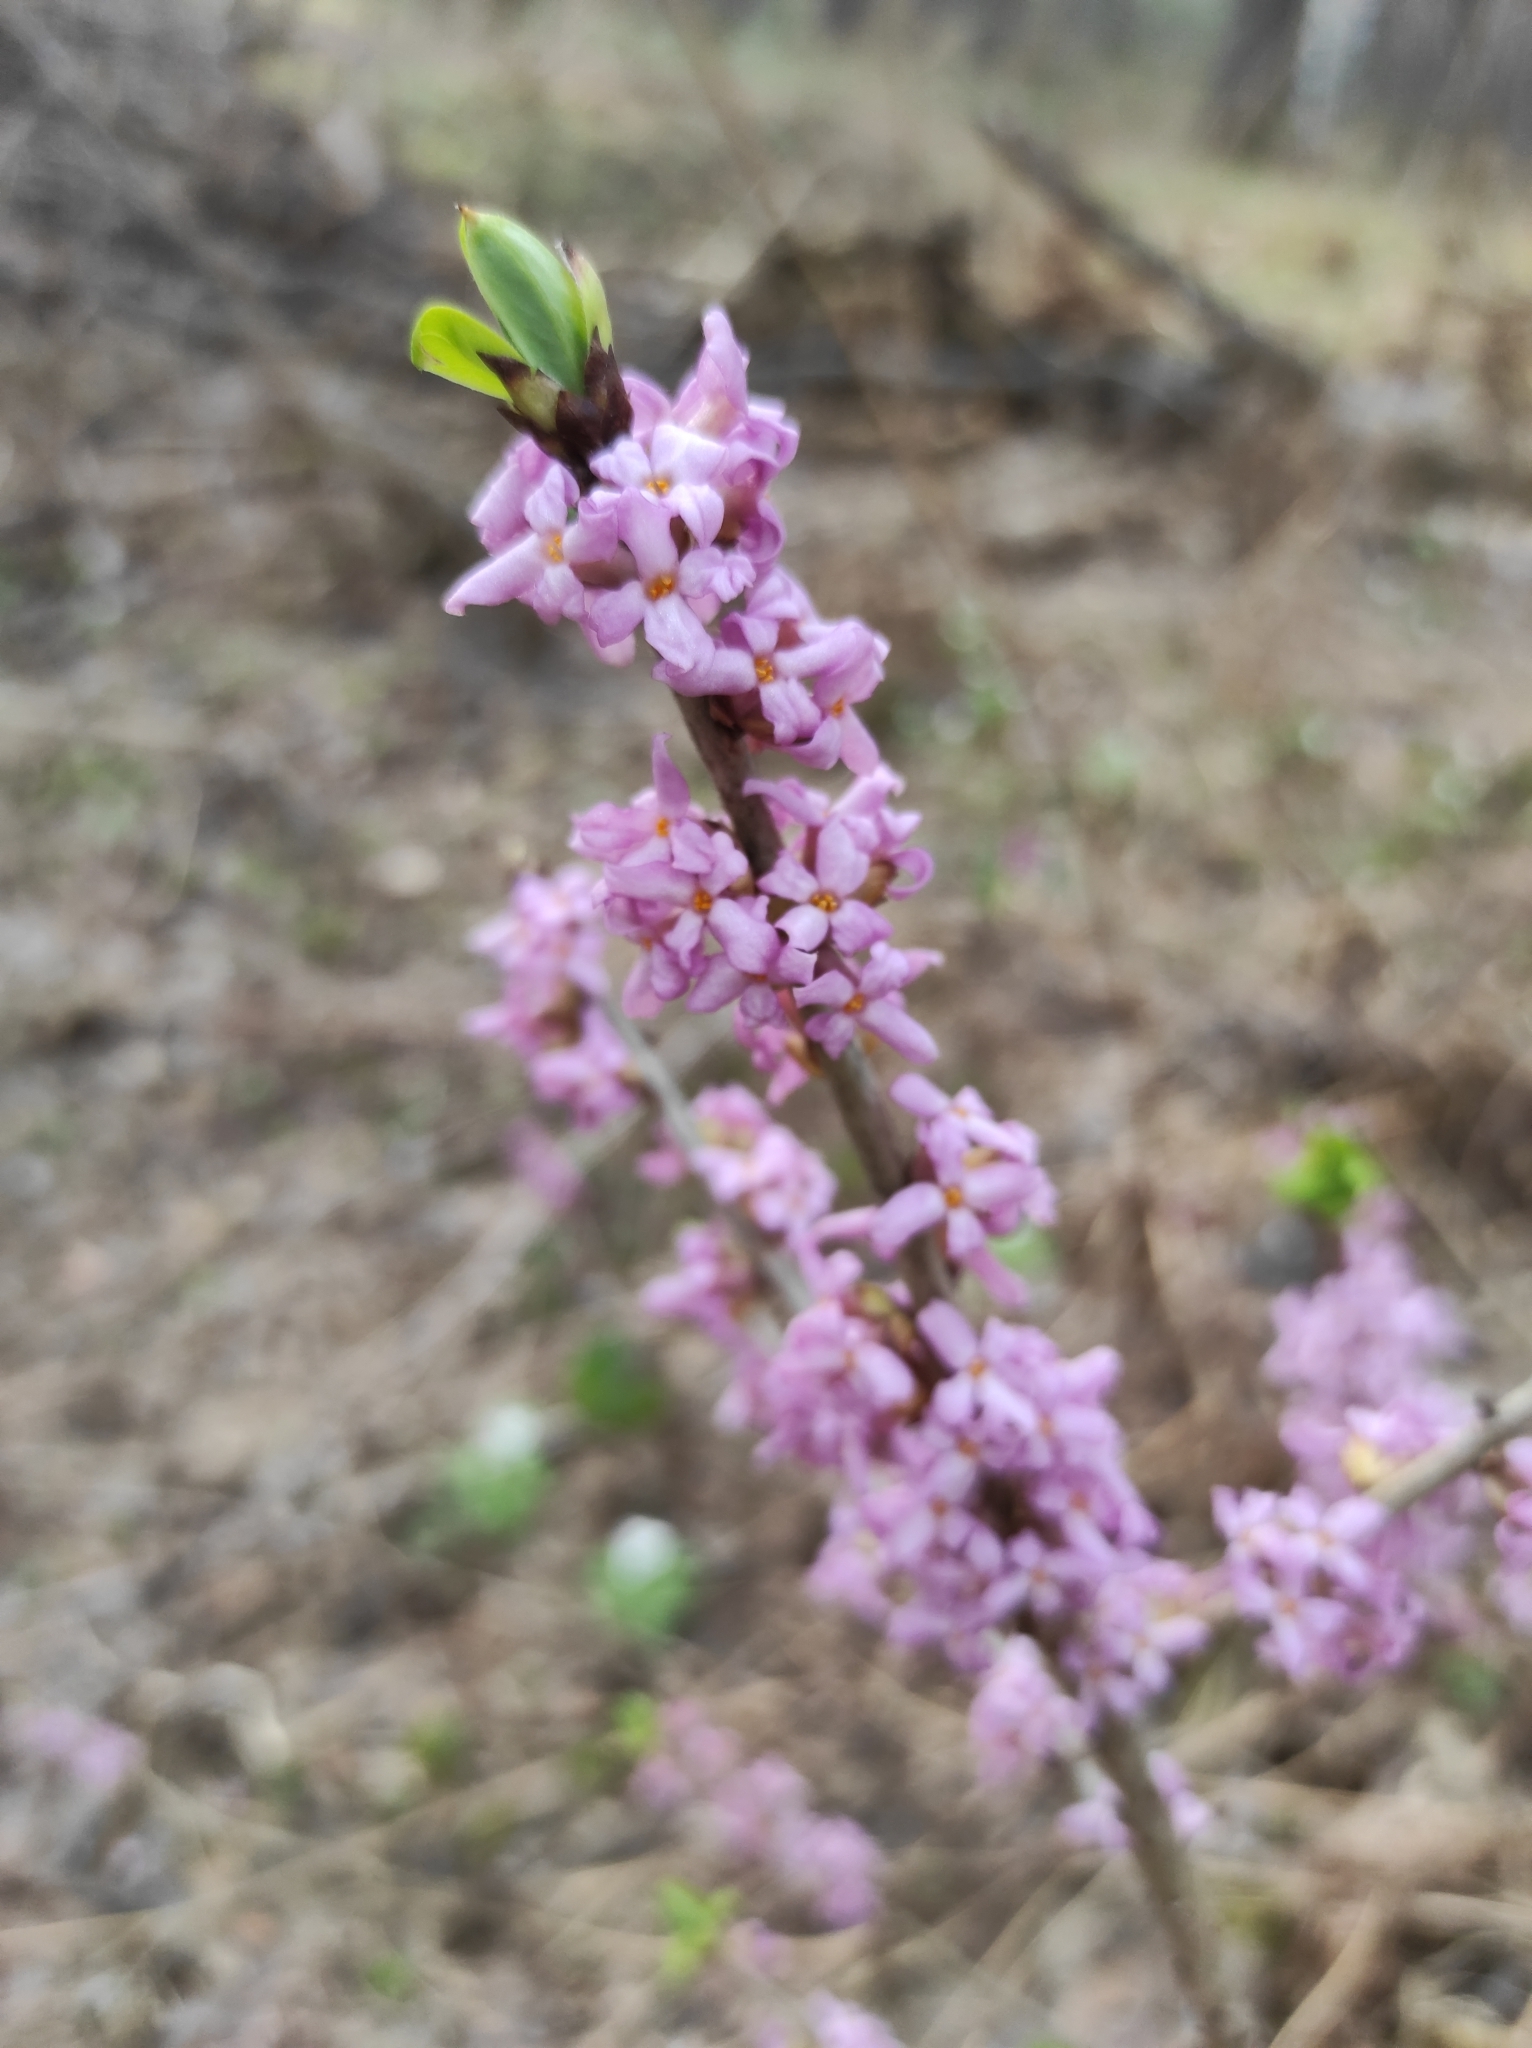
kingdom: Plantae
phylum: Tracheophyta
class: Magnoliopsida
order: Malvales
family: Thymelaeaceae
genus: Daphne
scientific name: Daphne mezereum
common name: Mezereon
